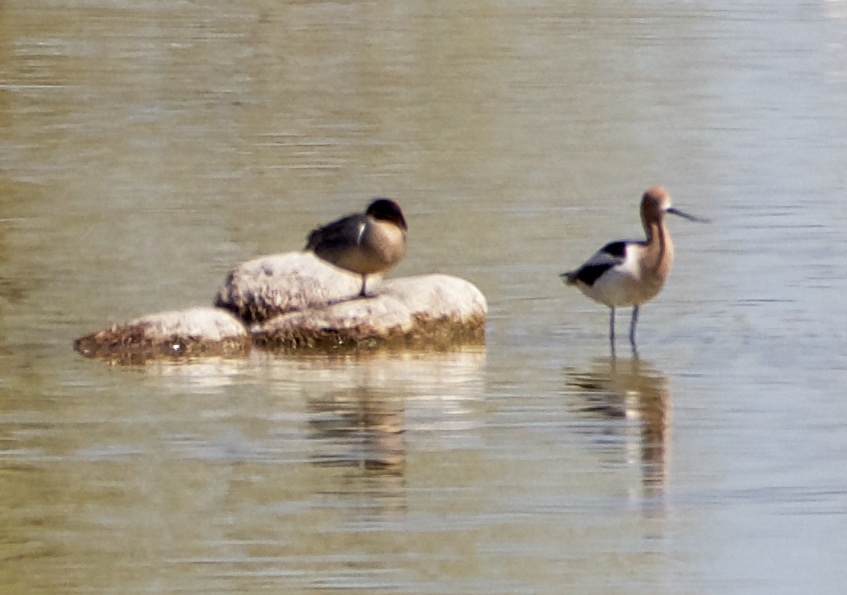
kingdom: Animalia
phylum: Chordata
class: Aves
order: Charadriiformes
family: Recurvirostridae
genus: Recurvirostra
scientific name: Recurvirostra americana
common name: American avocet
